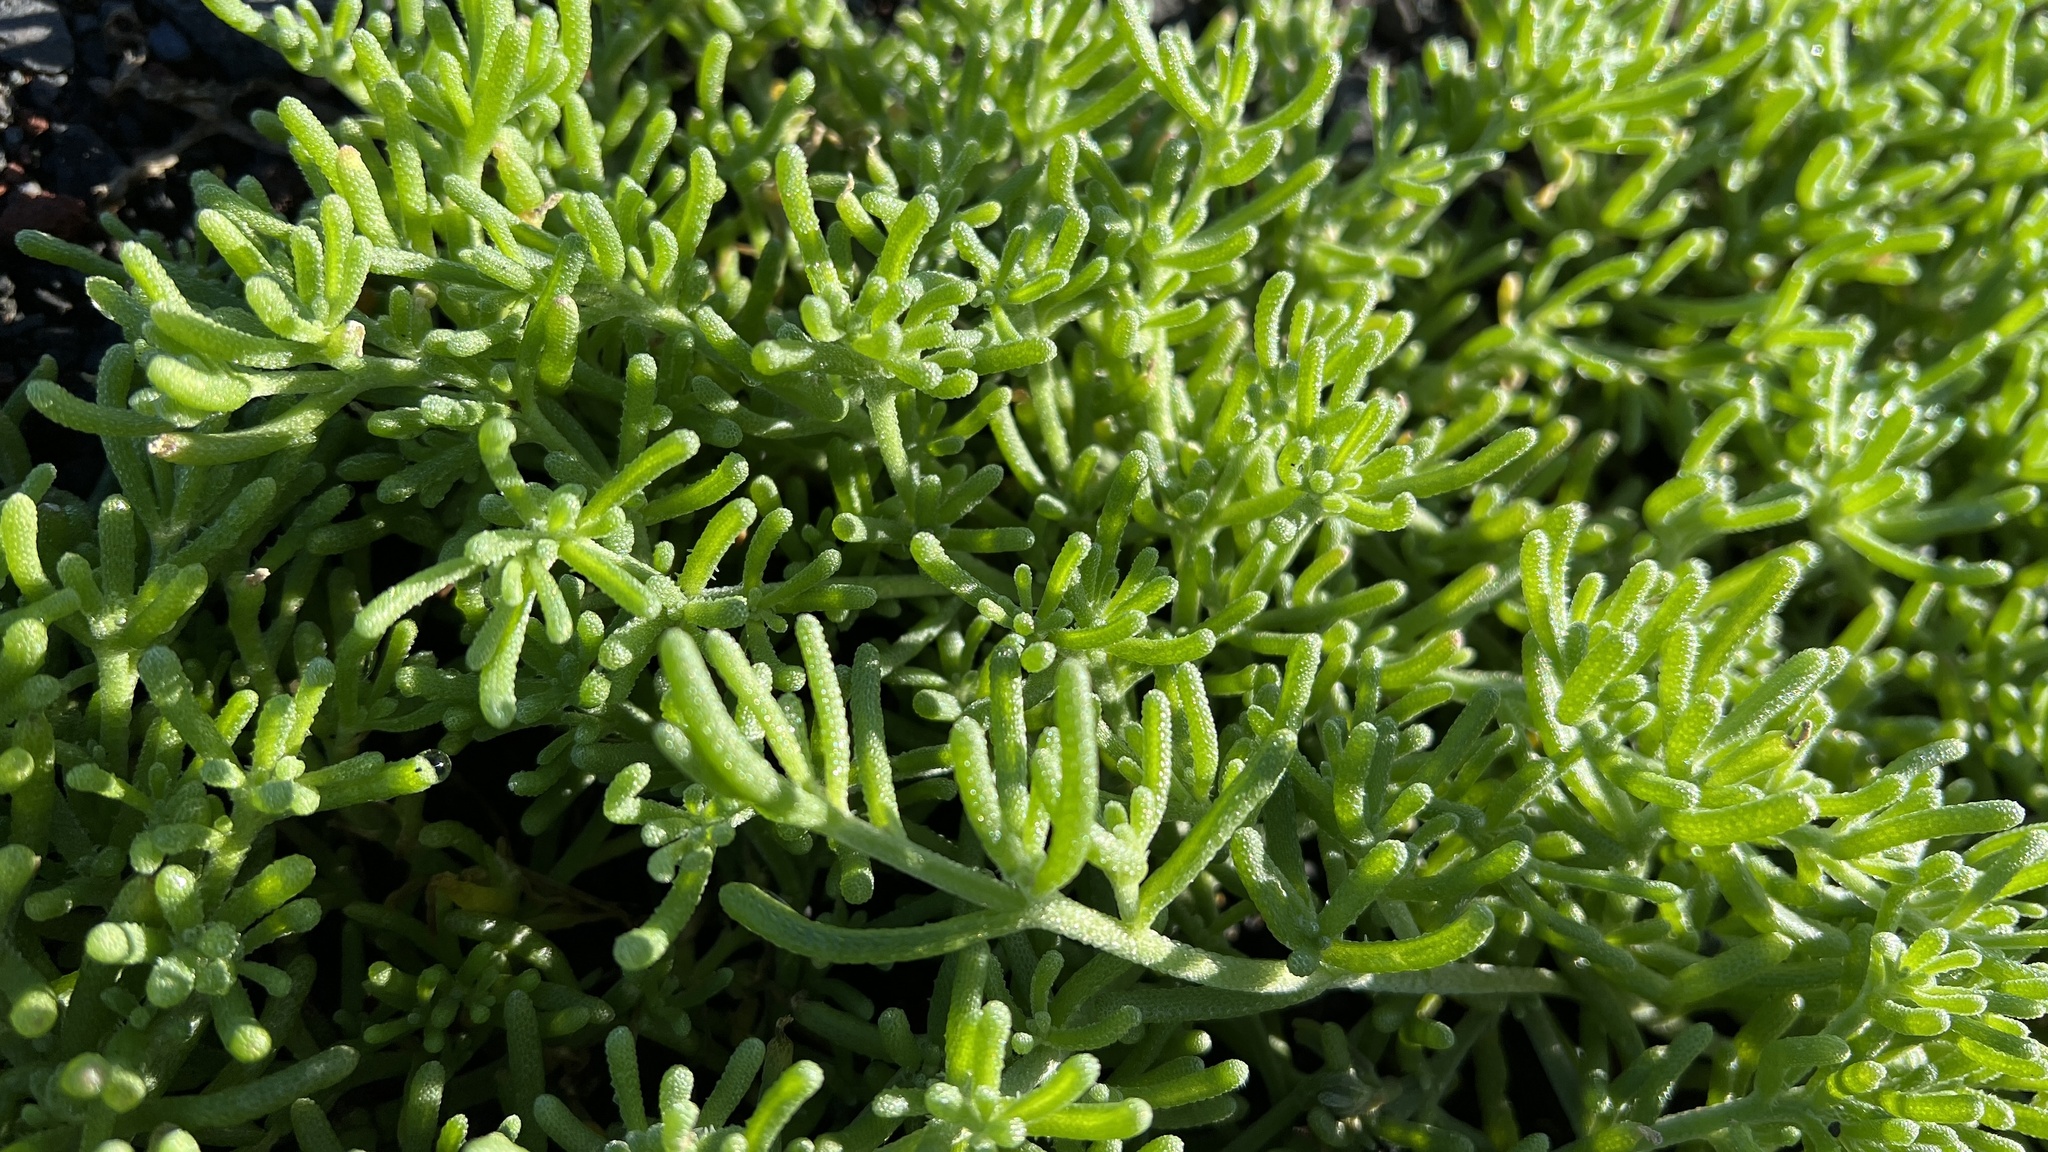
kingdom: Plantae
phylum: Tracheophyta
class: Magnoliopsida
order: Caryophyllales
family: Aizoaceae
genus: Mesembryanthemum
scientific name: Mesembryanthemum nodiflorum
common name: Slenderleaf iceplant
